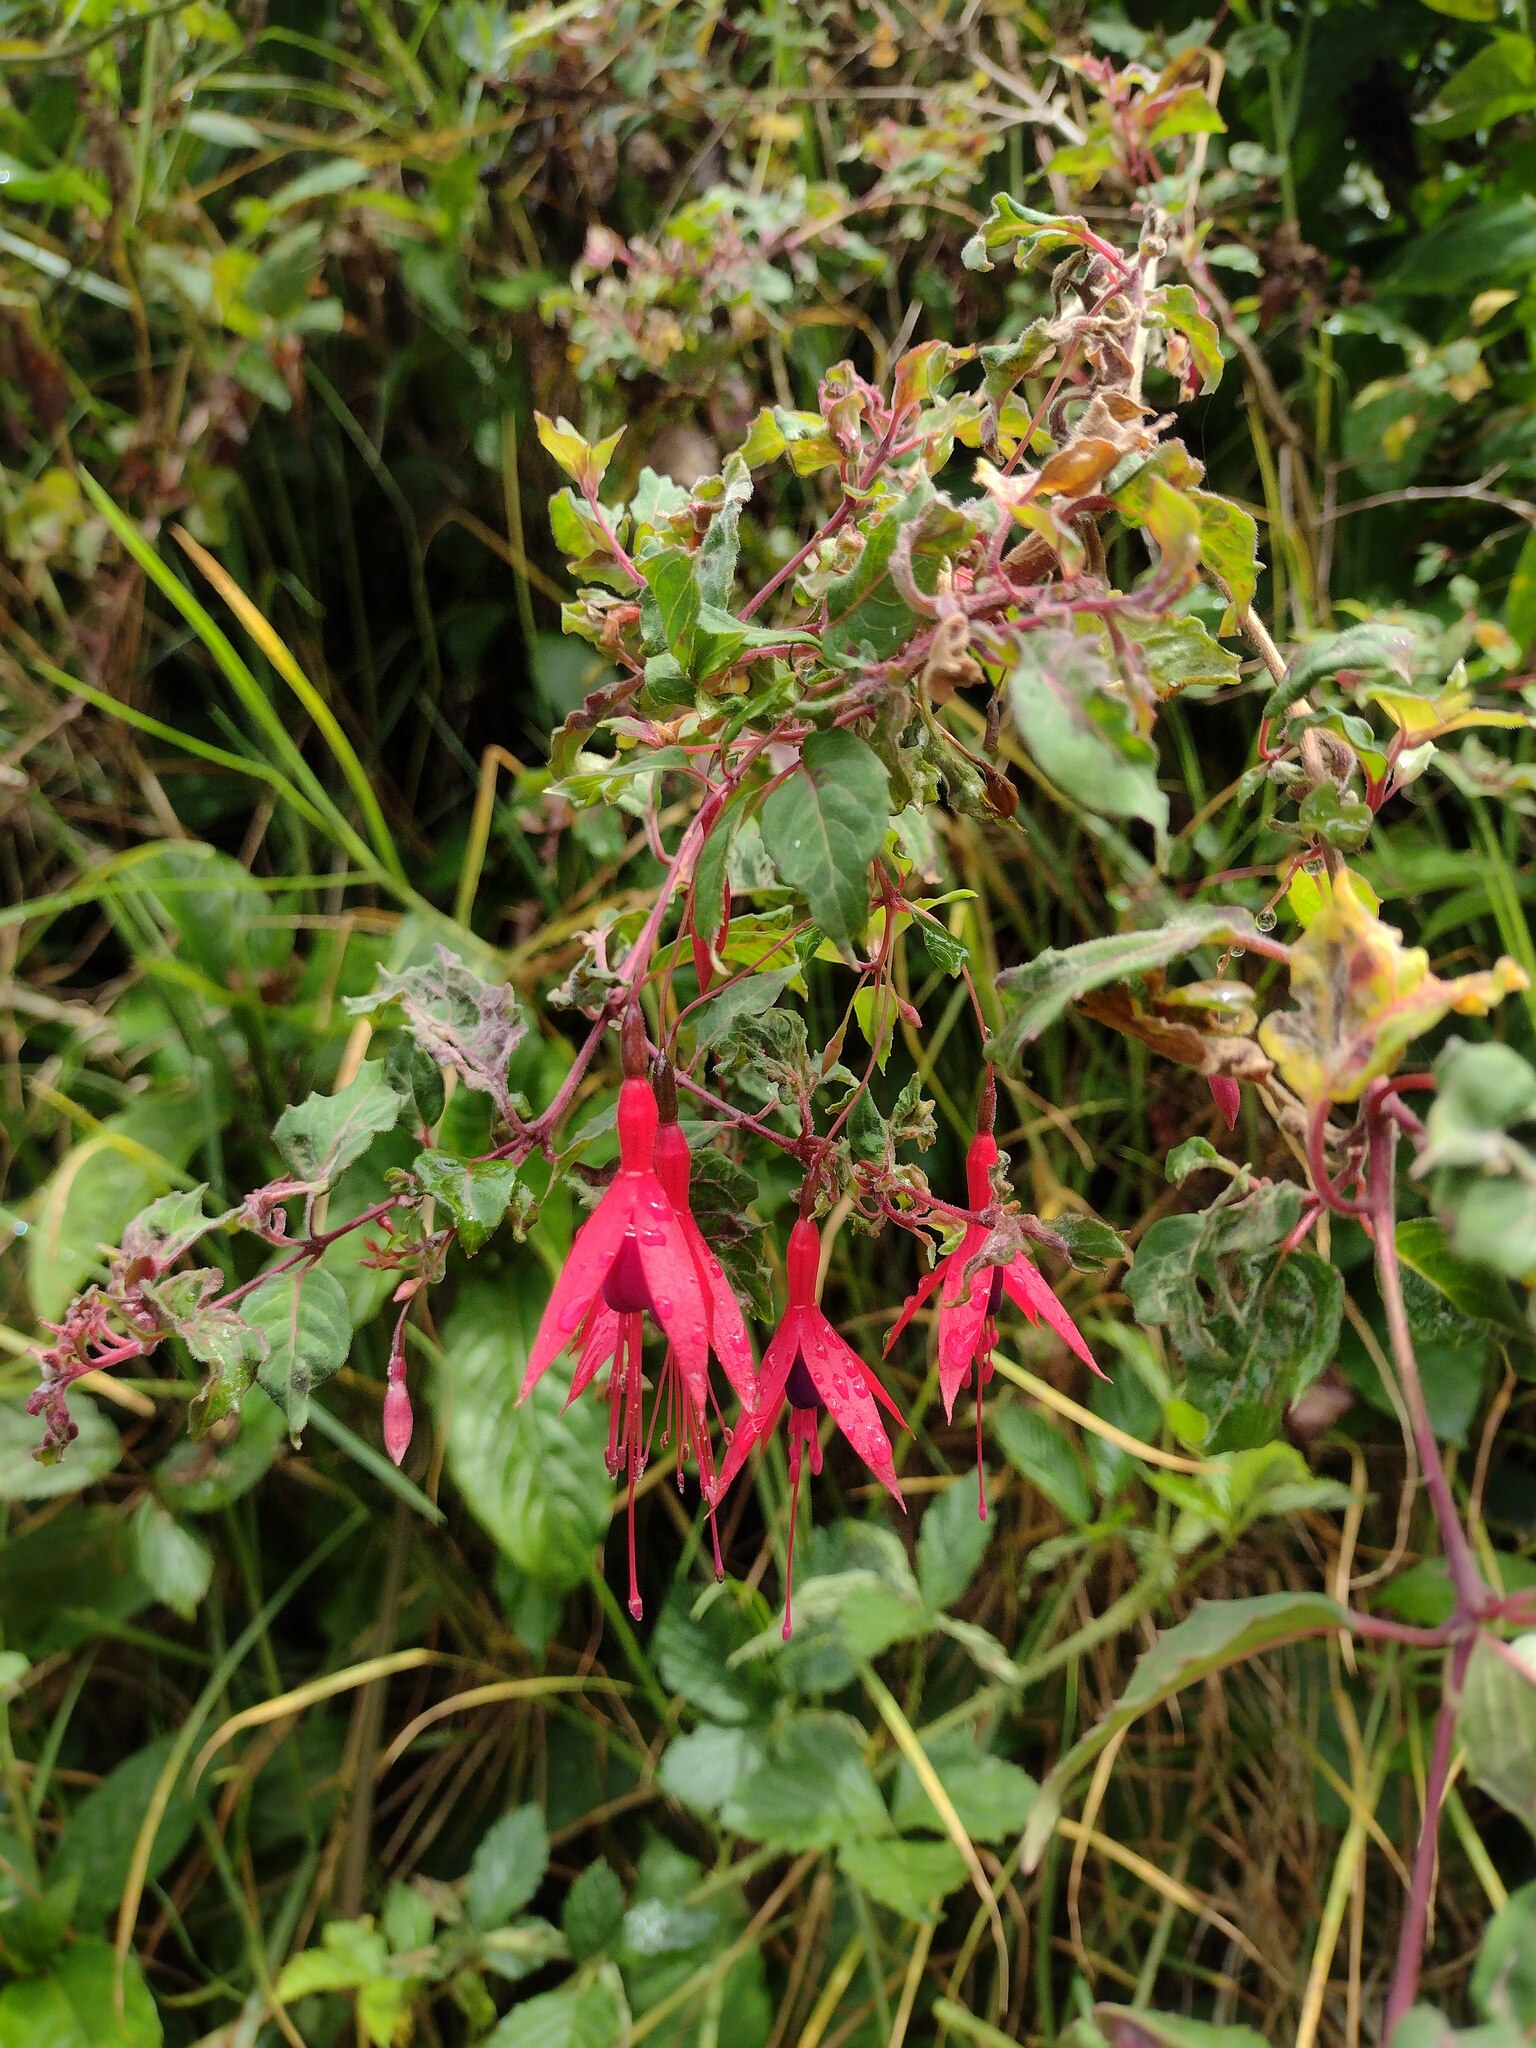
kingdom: Plantae
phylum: Tracheophyta
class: Magnoliopsida
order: Myrtales
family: Onagraceae
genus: Fuchsia
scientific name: Fuchsia magellanica
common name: Hardy fuchsia
